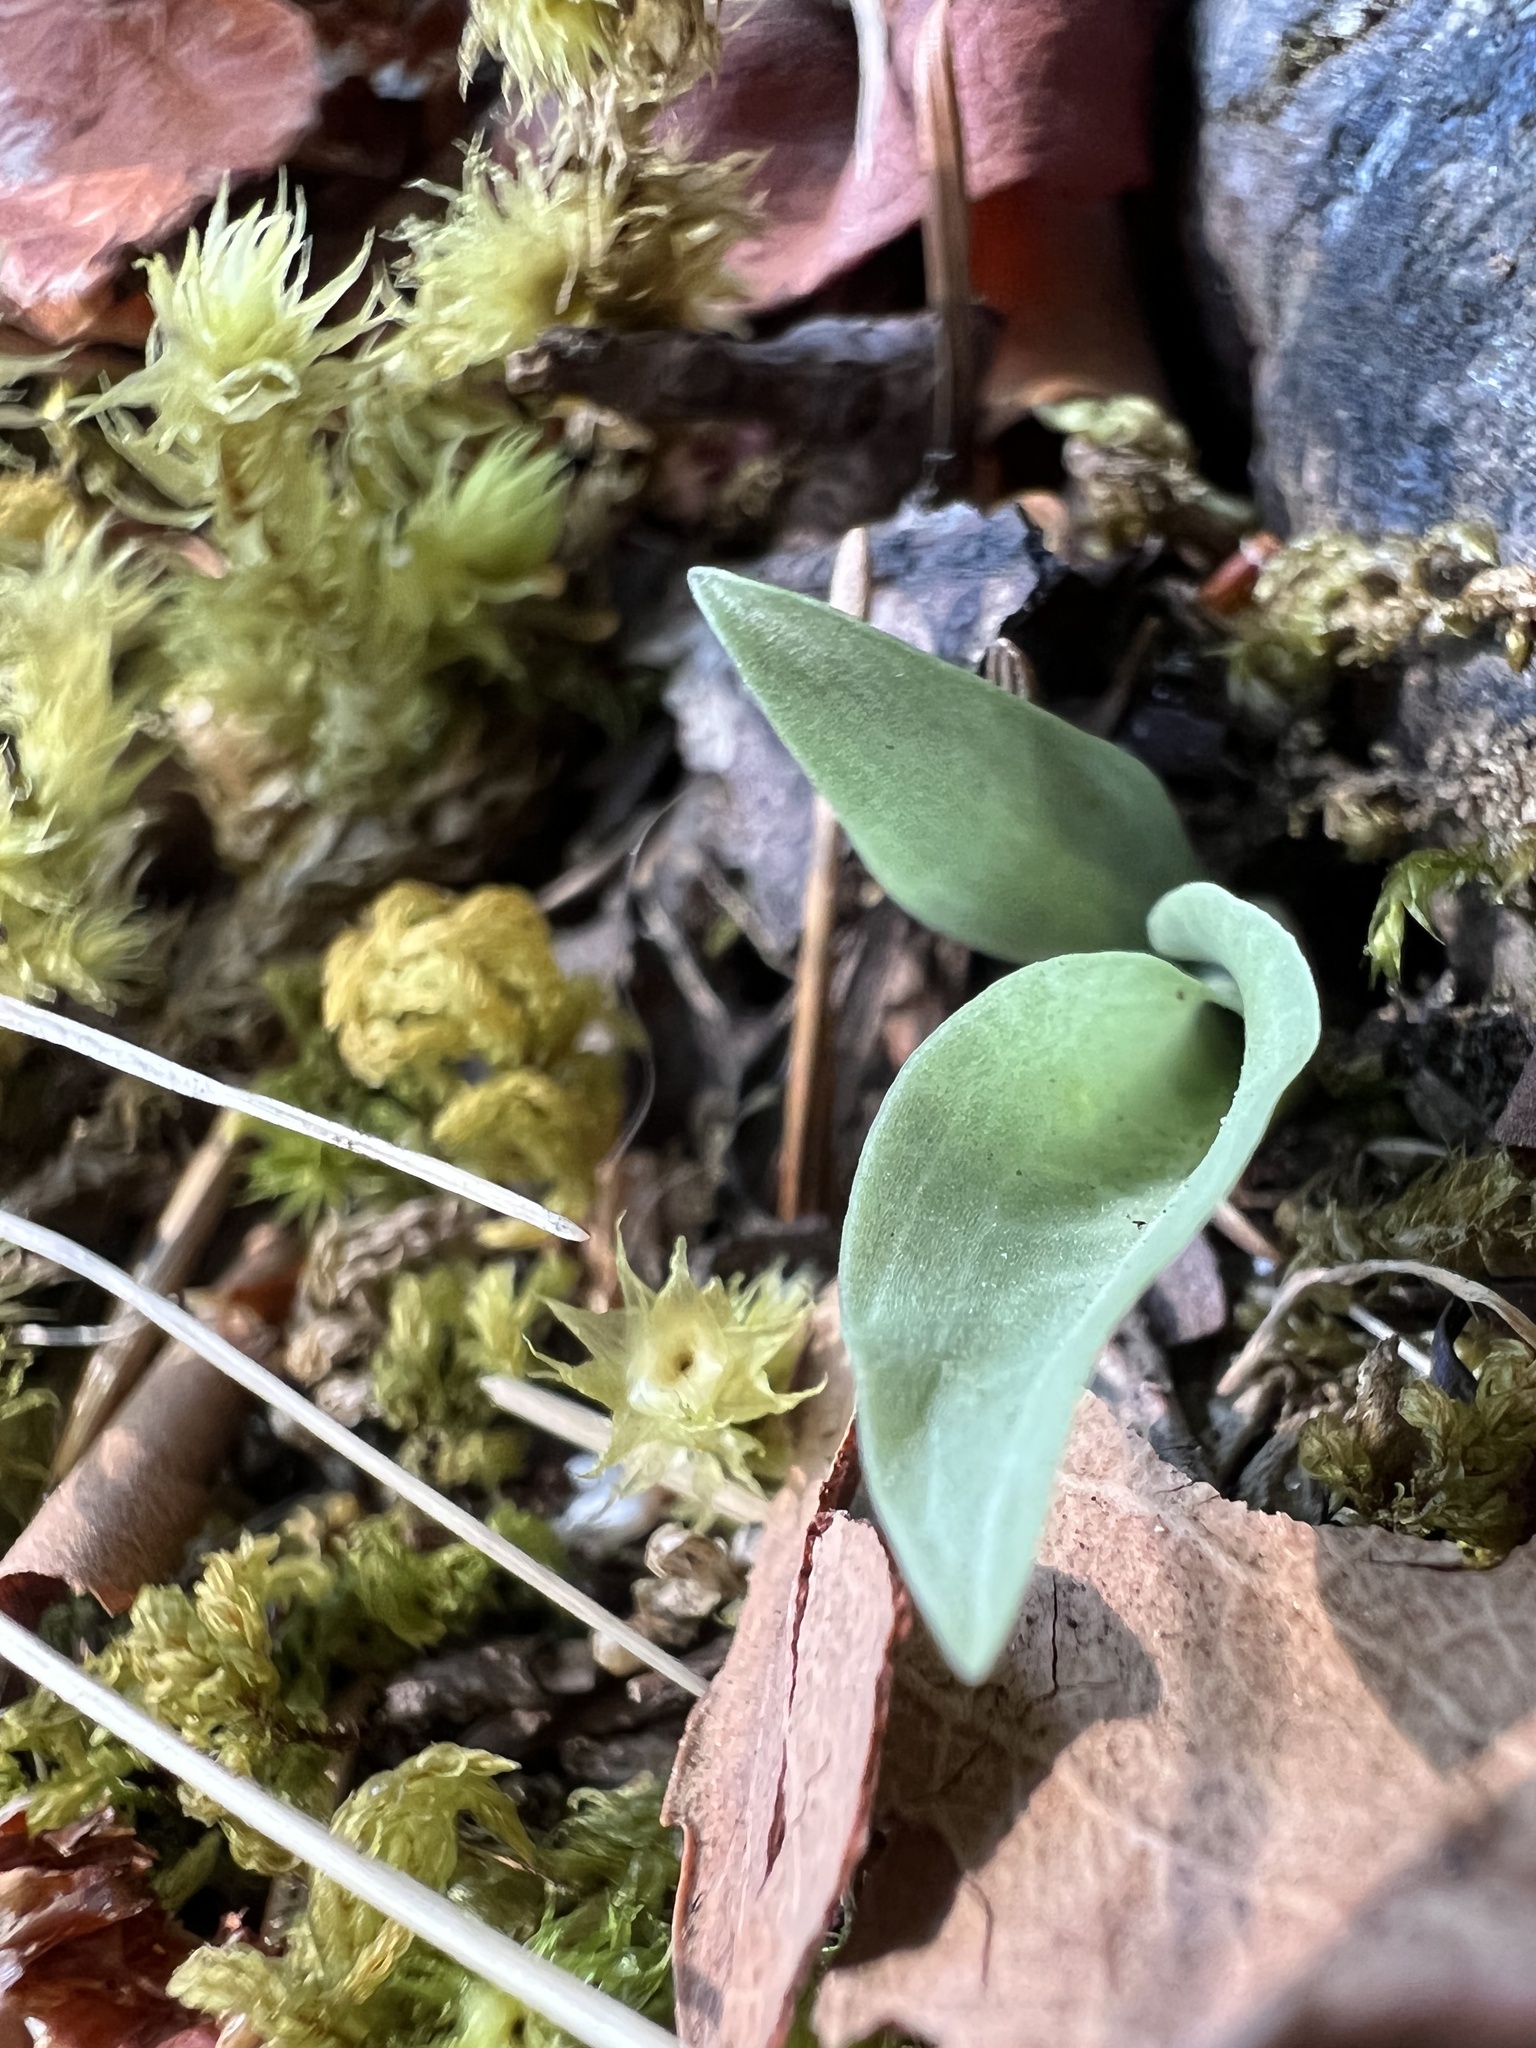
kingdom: Plantae
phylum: Tracheophyta
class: Liliopsida
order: Asparagales
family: Orchidaceae
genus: Goodyera
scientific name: Goodyera oblongifolia
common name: Giant rattlesnake-plantain
